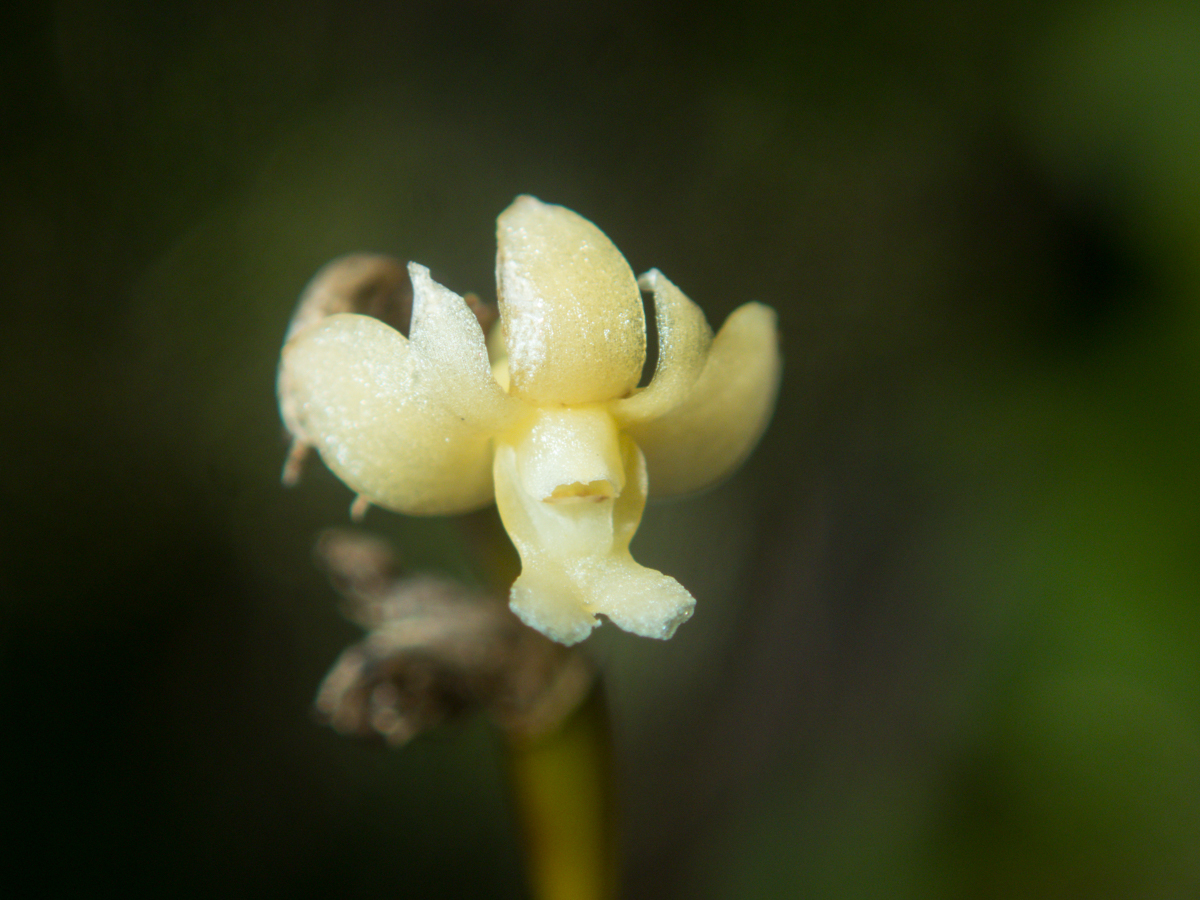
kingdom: Plantae
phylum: Tracheophyta
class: Liliopsida
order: Asparagales
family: Orchidaceae
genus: Dendrobium
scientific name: Dendrobium aloifolium
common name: Aloe-like dendrobium
